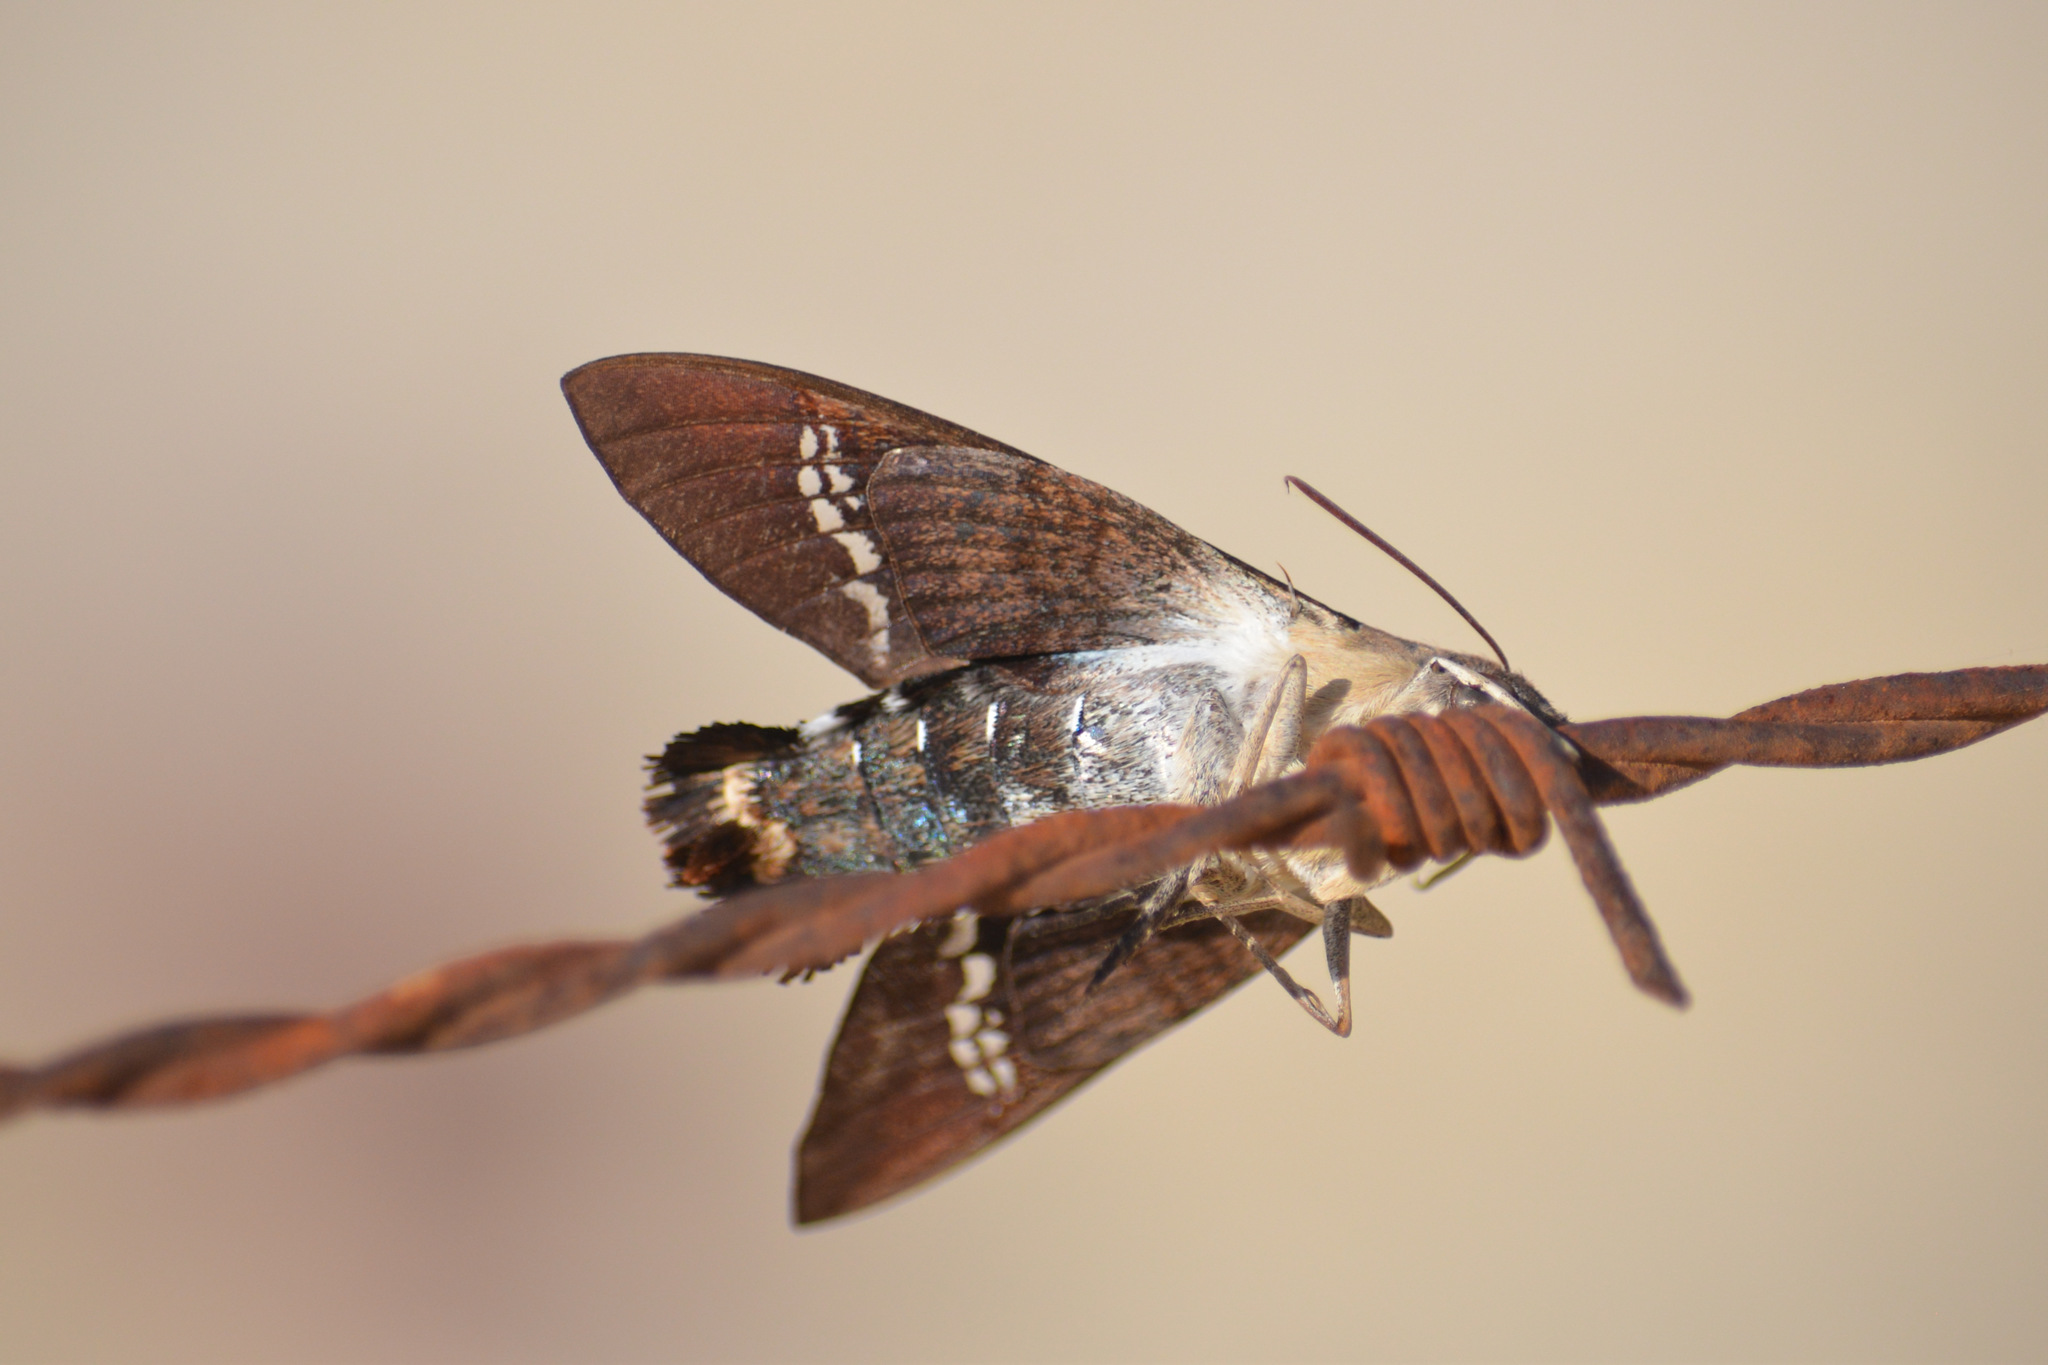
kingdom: Animalia
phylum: Arthropoda
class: Insecta
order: Lepidoptera
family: Sphingidae
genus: Aellopos
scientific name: Aellopos fadus
